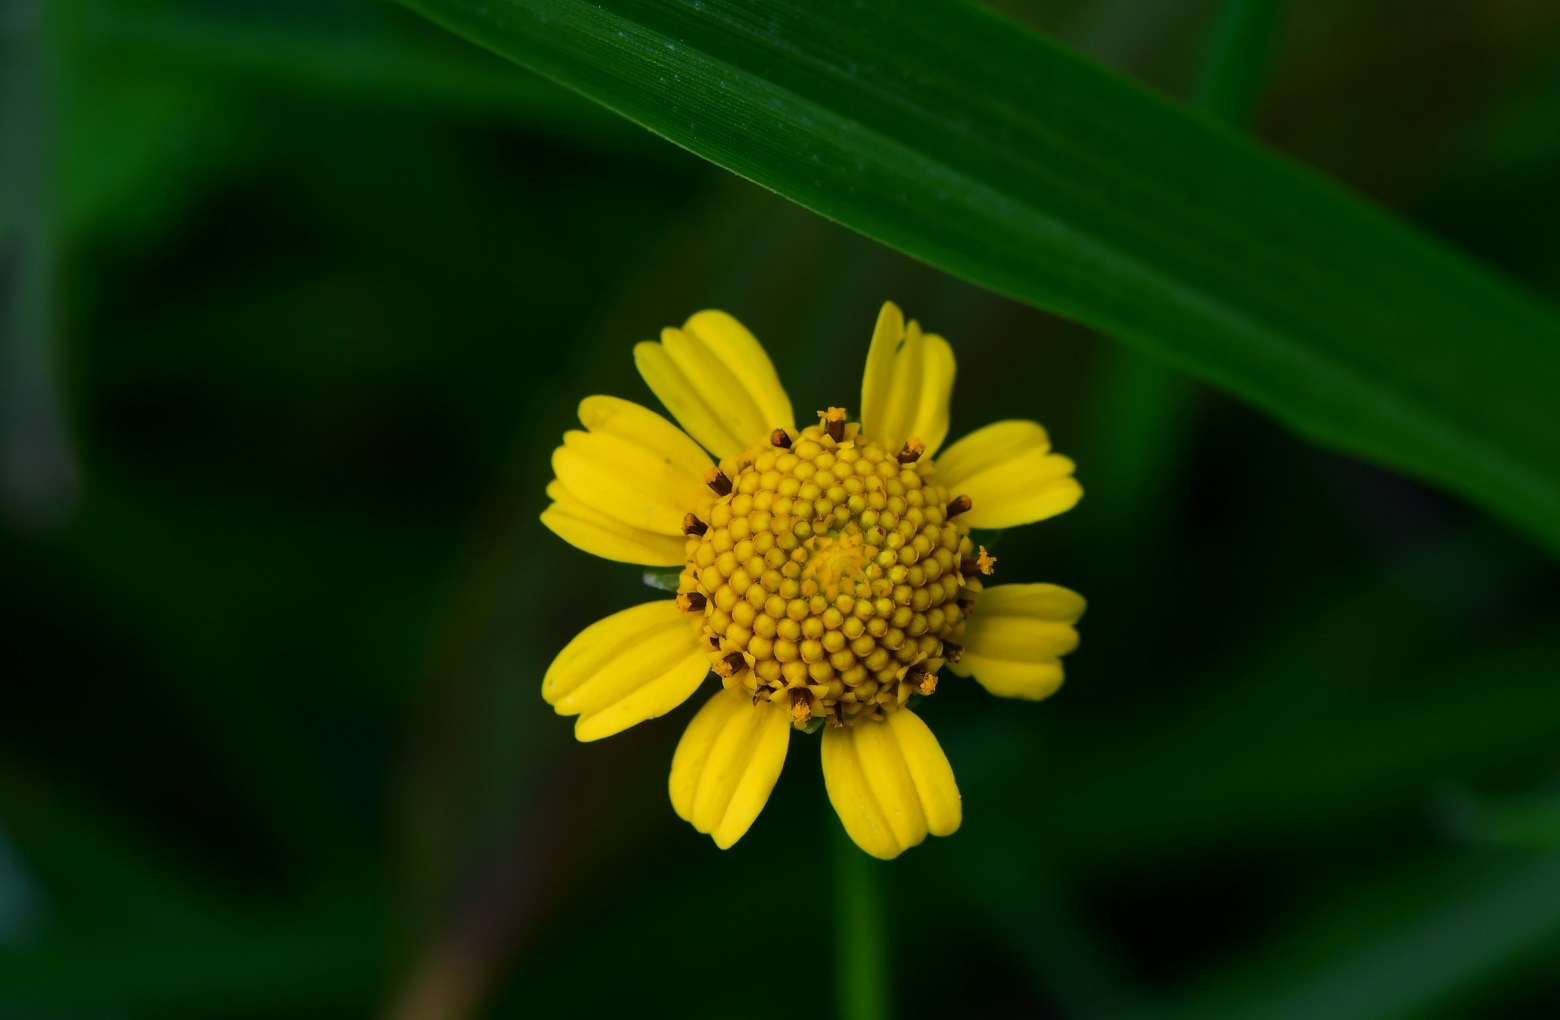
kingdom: Plantae
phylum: Tracheophyta
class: Magnoliopsida
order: Asterales
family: Asteraceae
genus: Acmella
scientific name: Acmella repens
